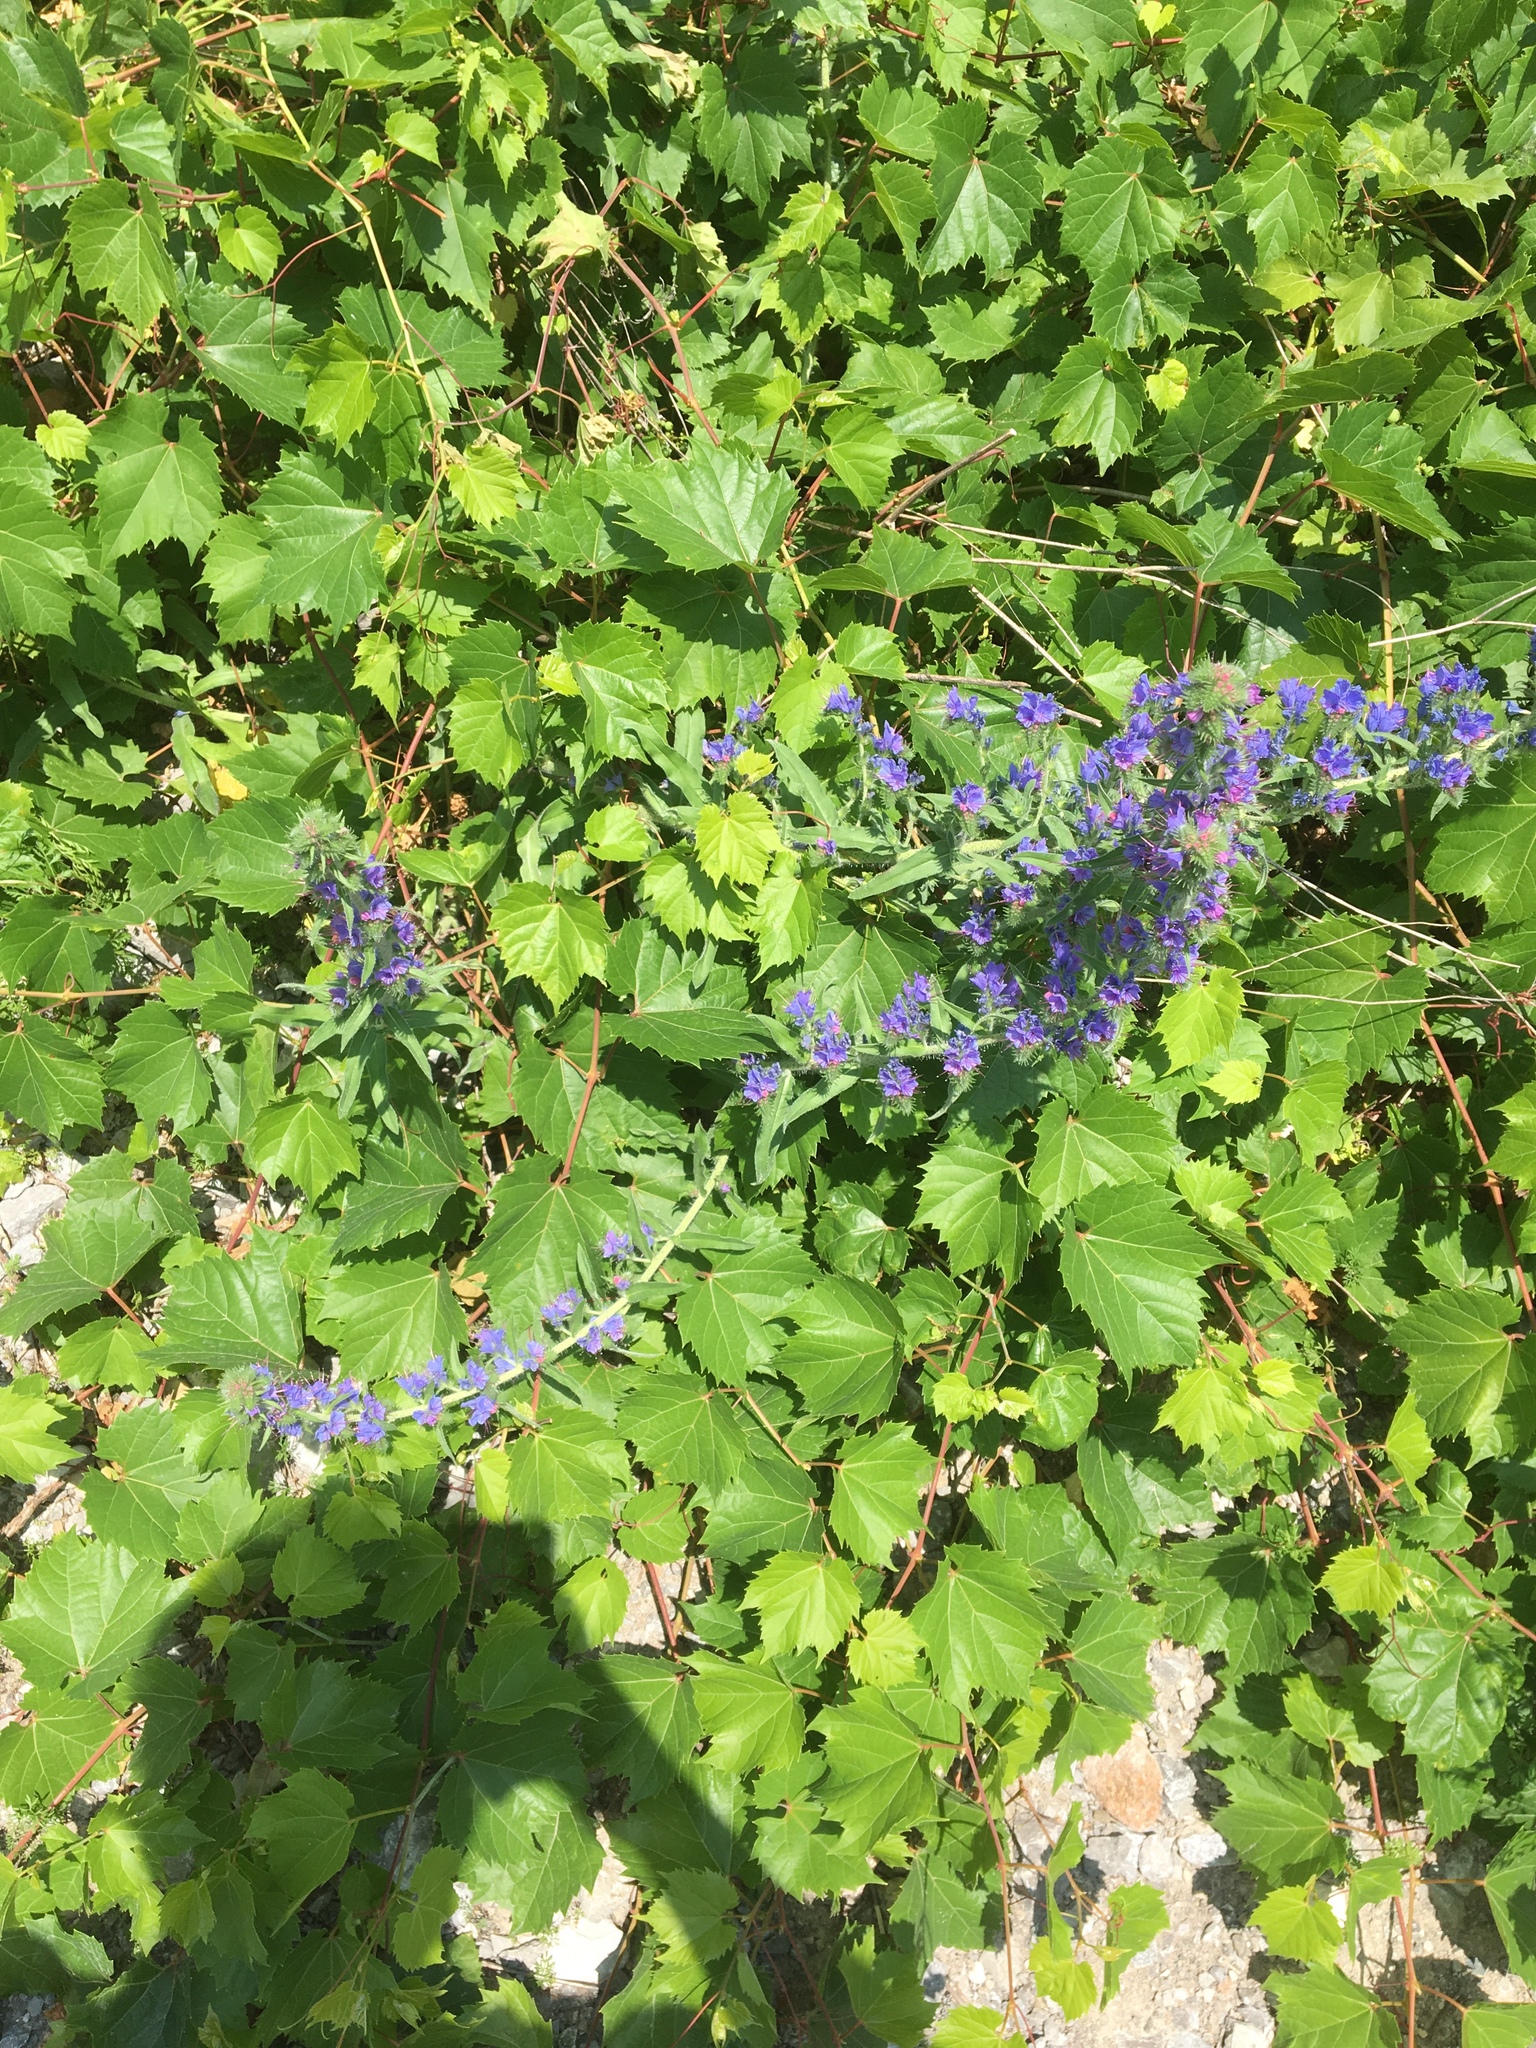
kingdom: Plantae
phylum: Tracheophyta
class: Magnoliopsida
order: Boraginales
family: Boraginaceae
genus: Echium
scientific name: Echium vulgare
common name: Common viper's bugloss
